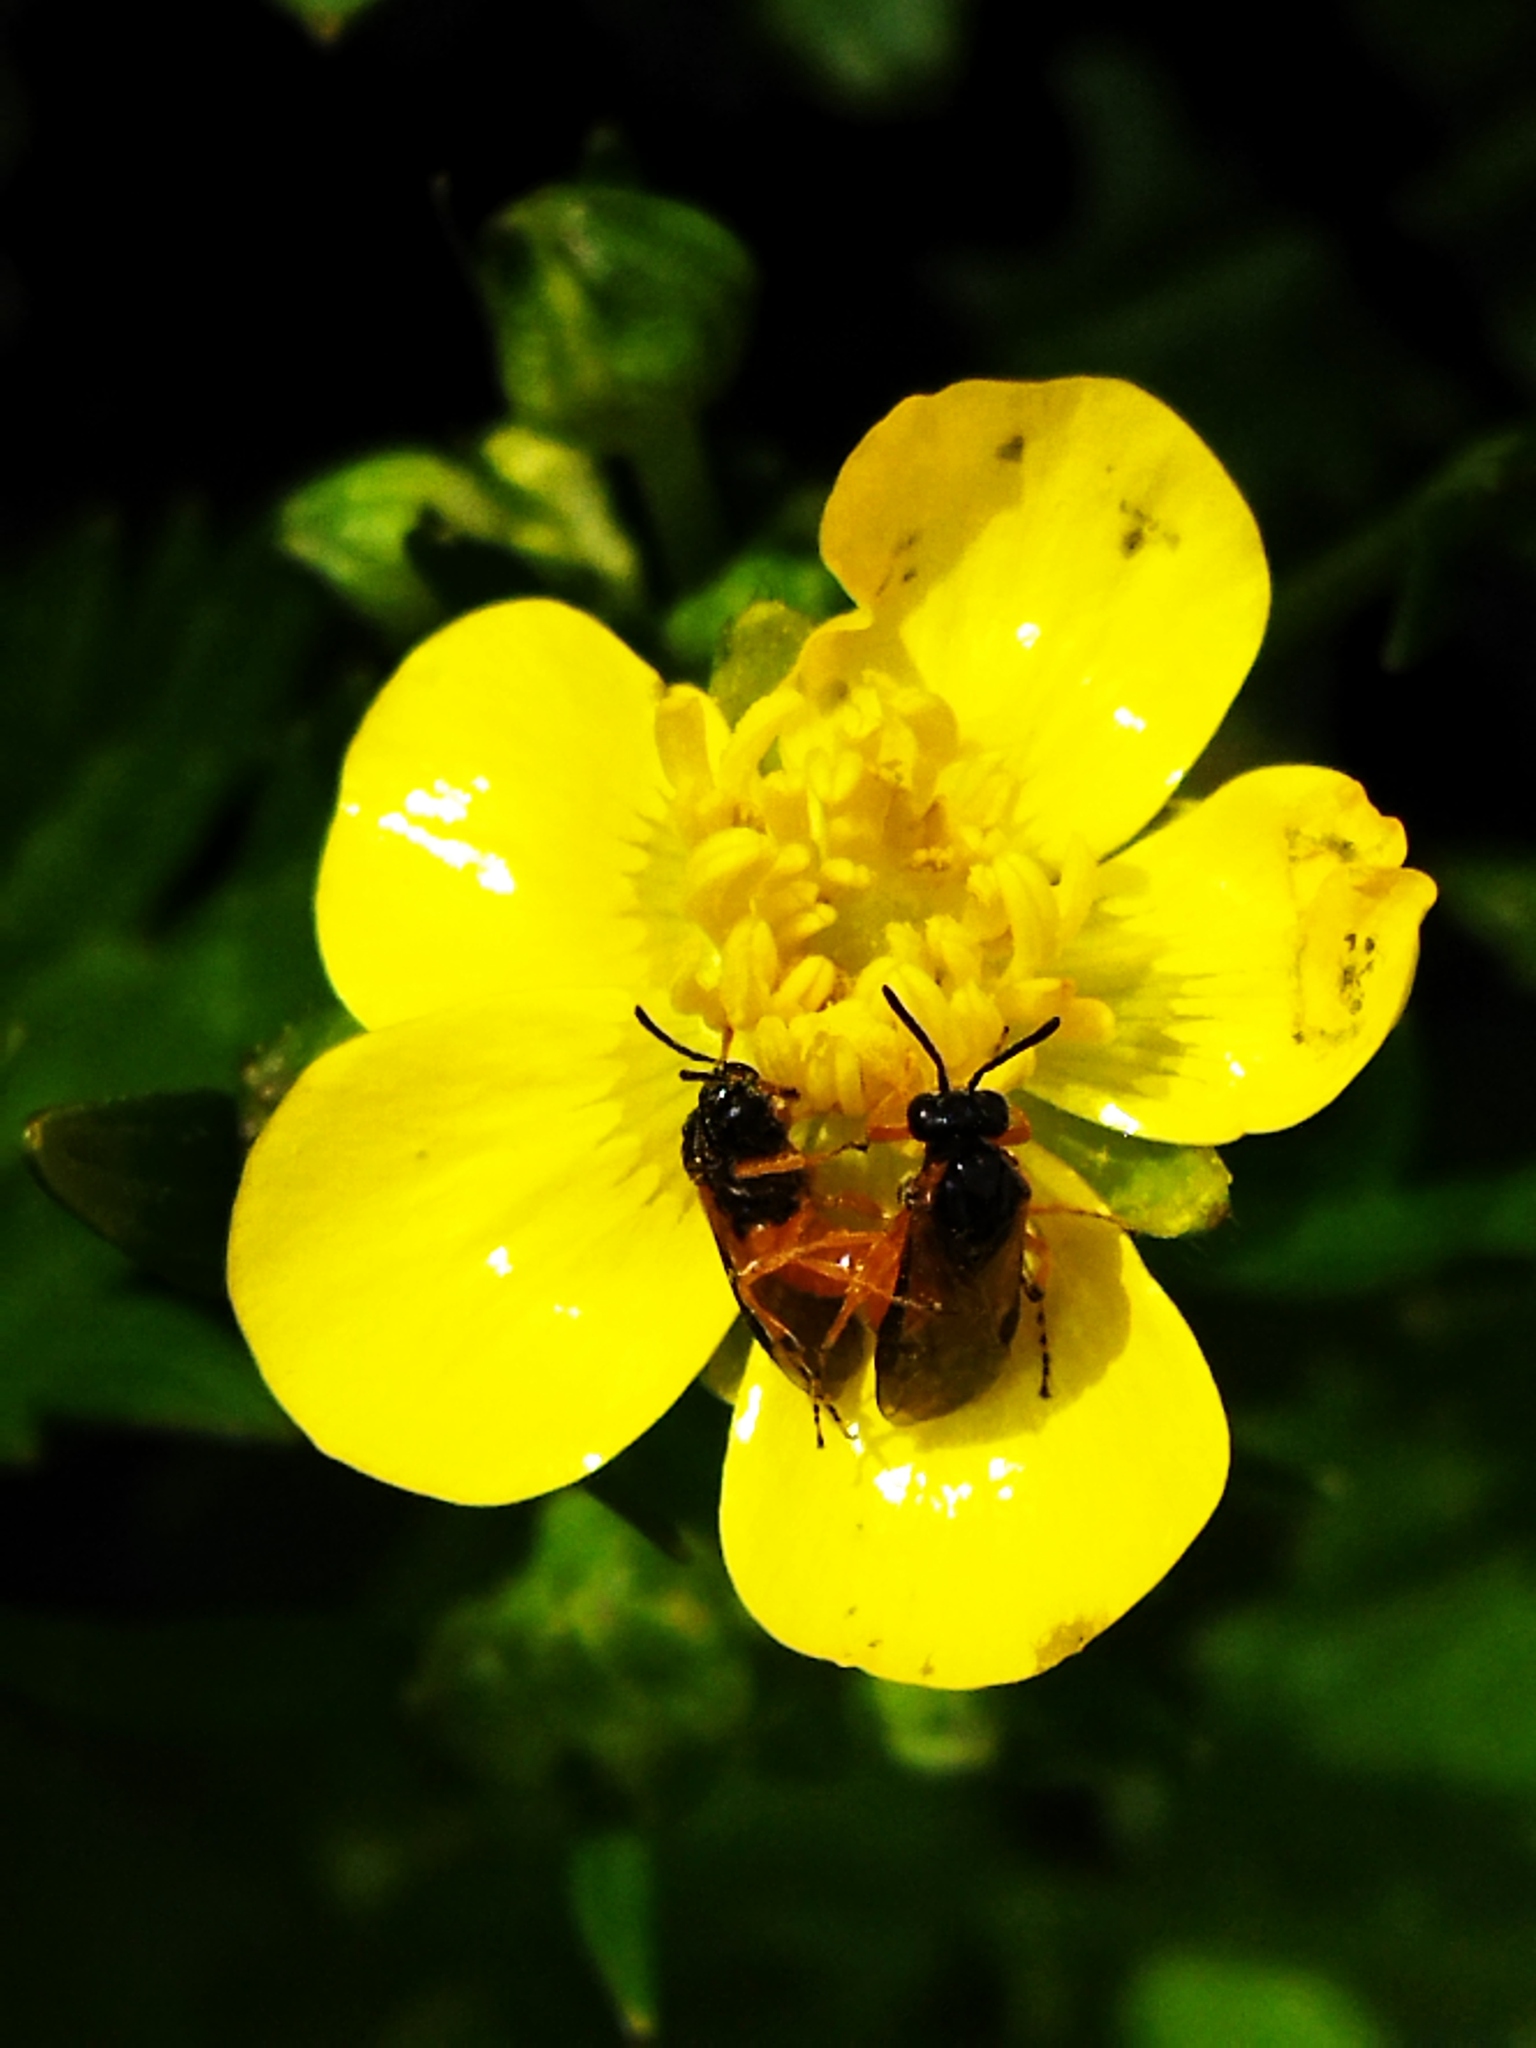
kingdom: Animalia
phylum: Arthropoda
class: Insecta
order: Hymenoptera
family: Tenthredinidae
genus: Athalia
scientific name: Athalia
